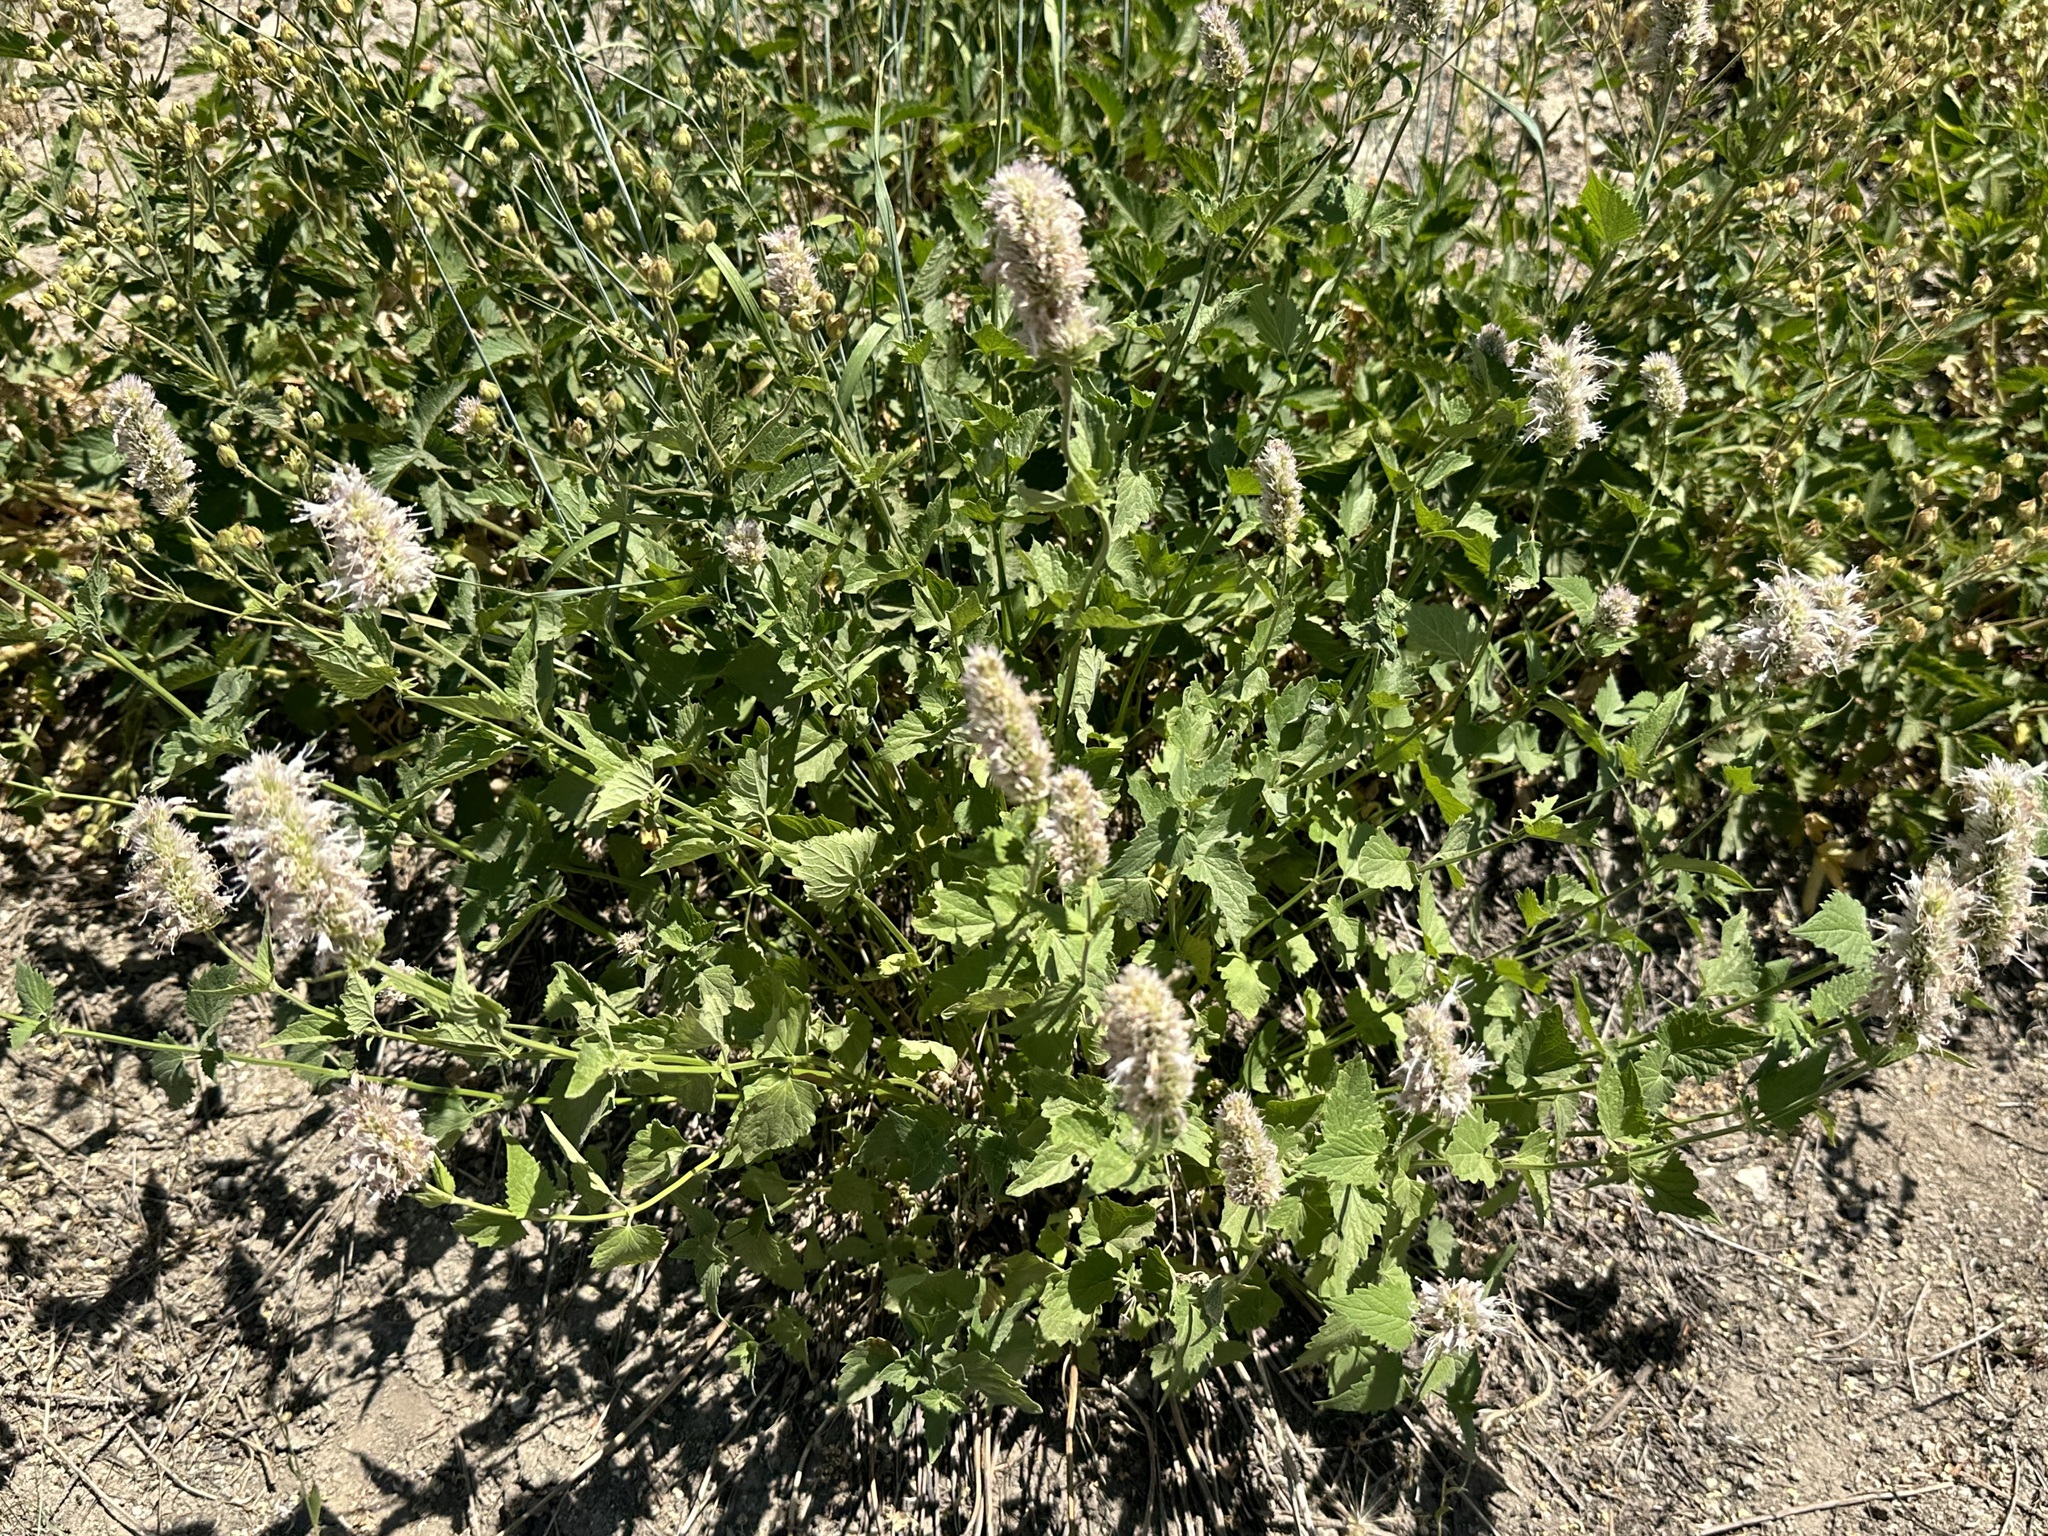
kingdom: Plantae
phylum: Tracheophyta
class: Magnoliopsida
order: Lamiales
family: Lamiaceae
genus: Agastache
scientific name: Agastache urticifolia
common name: Horsemint giant hyssop
